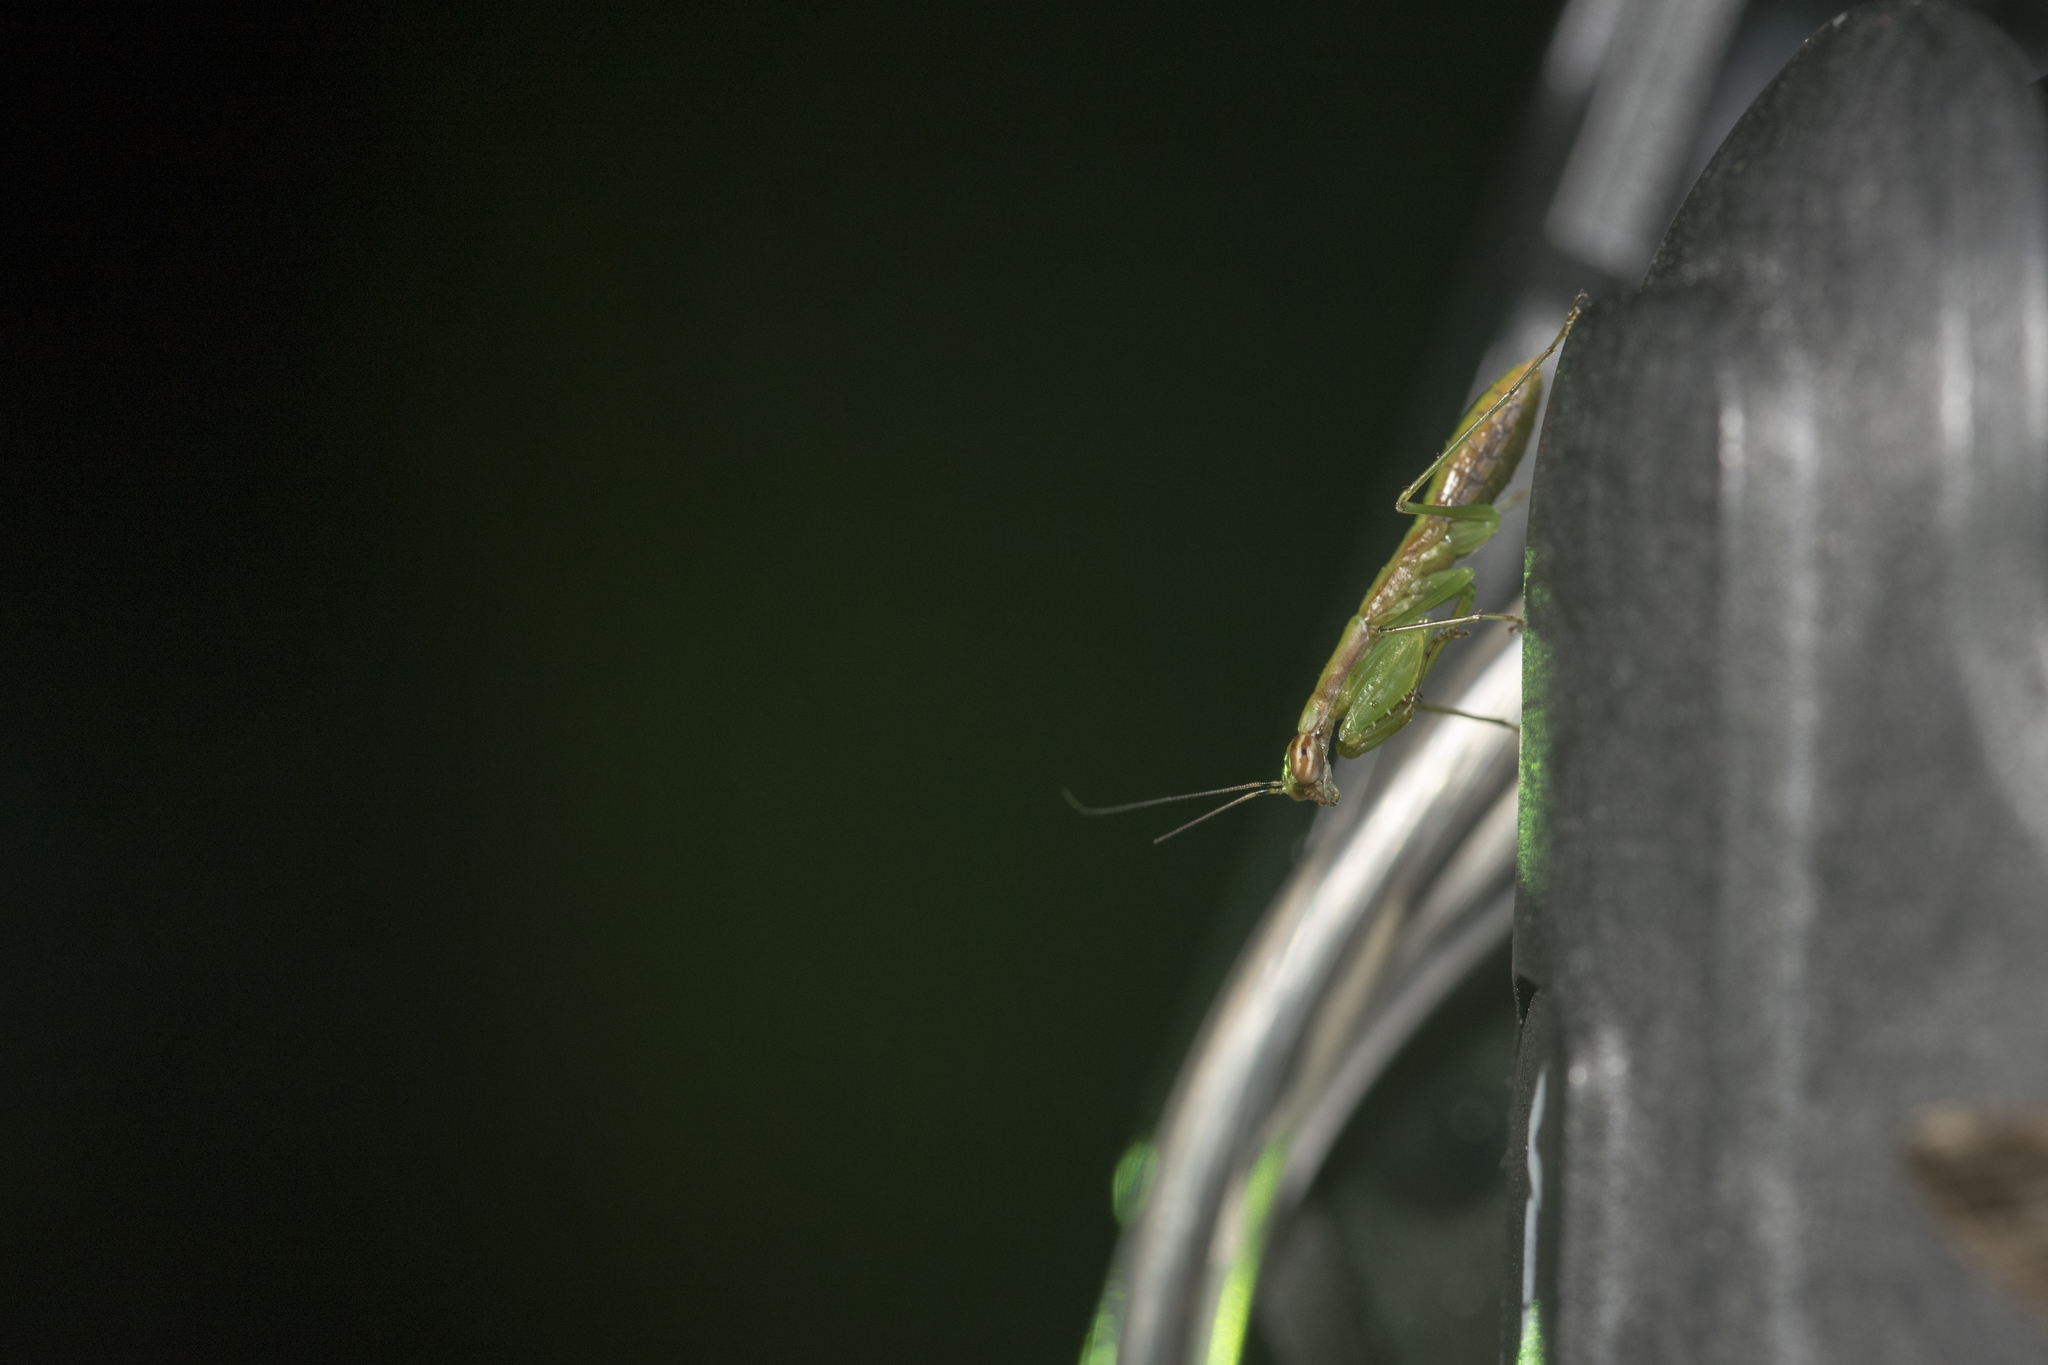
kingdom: Animalia
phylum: Arthropoda
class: Insecta
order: Mantodea
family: Hymenopodidae
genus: Odontomantis
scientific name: Odontomantis planiceps
